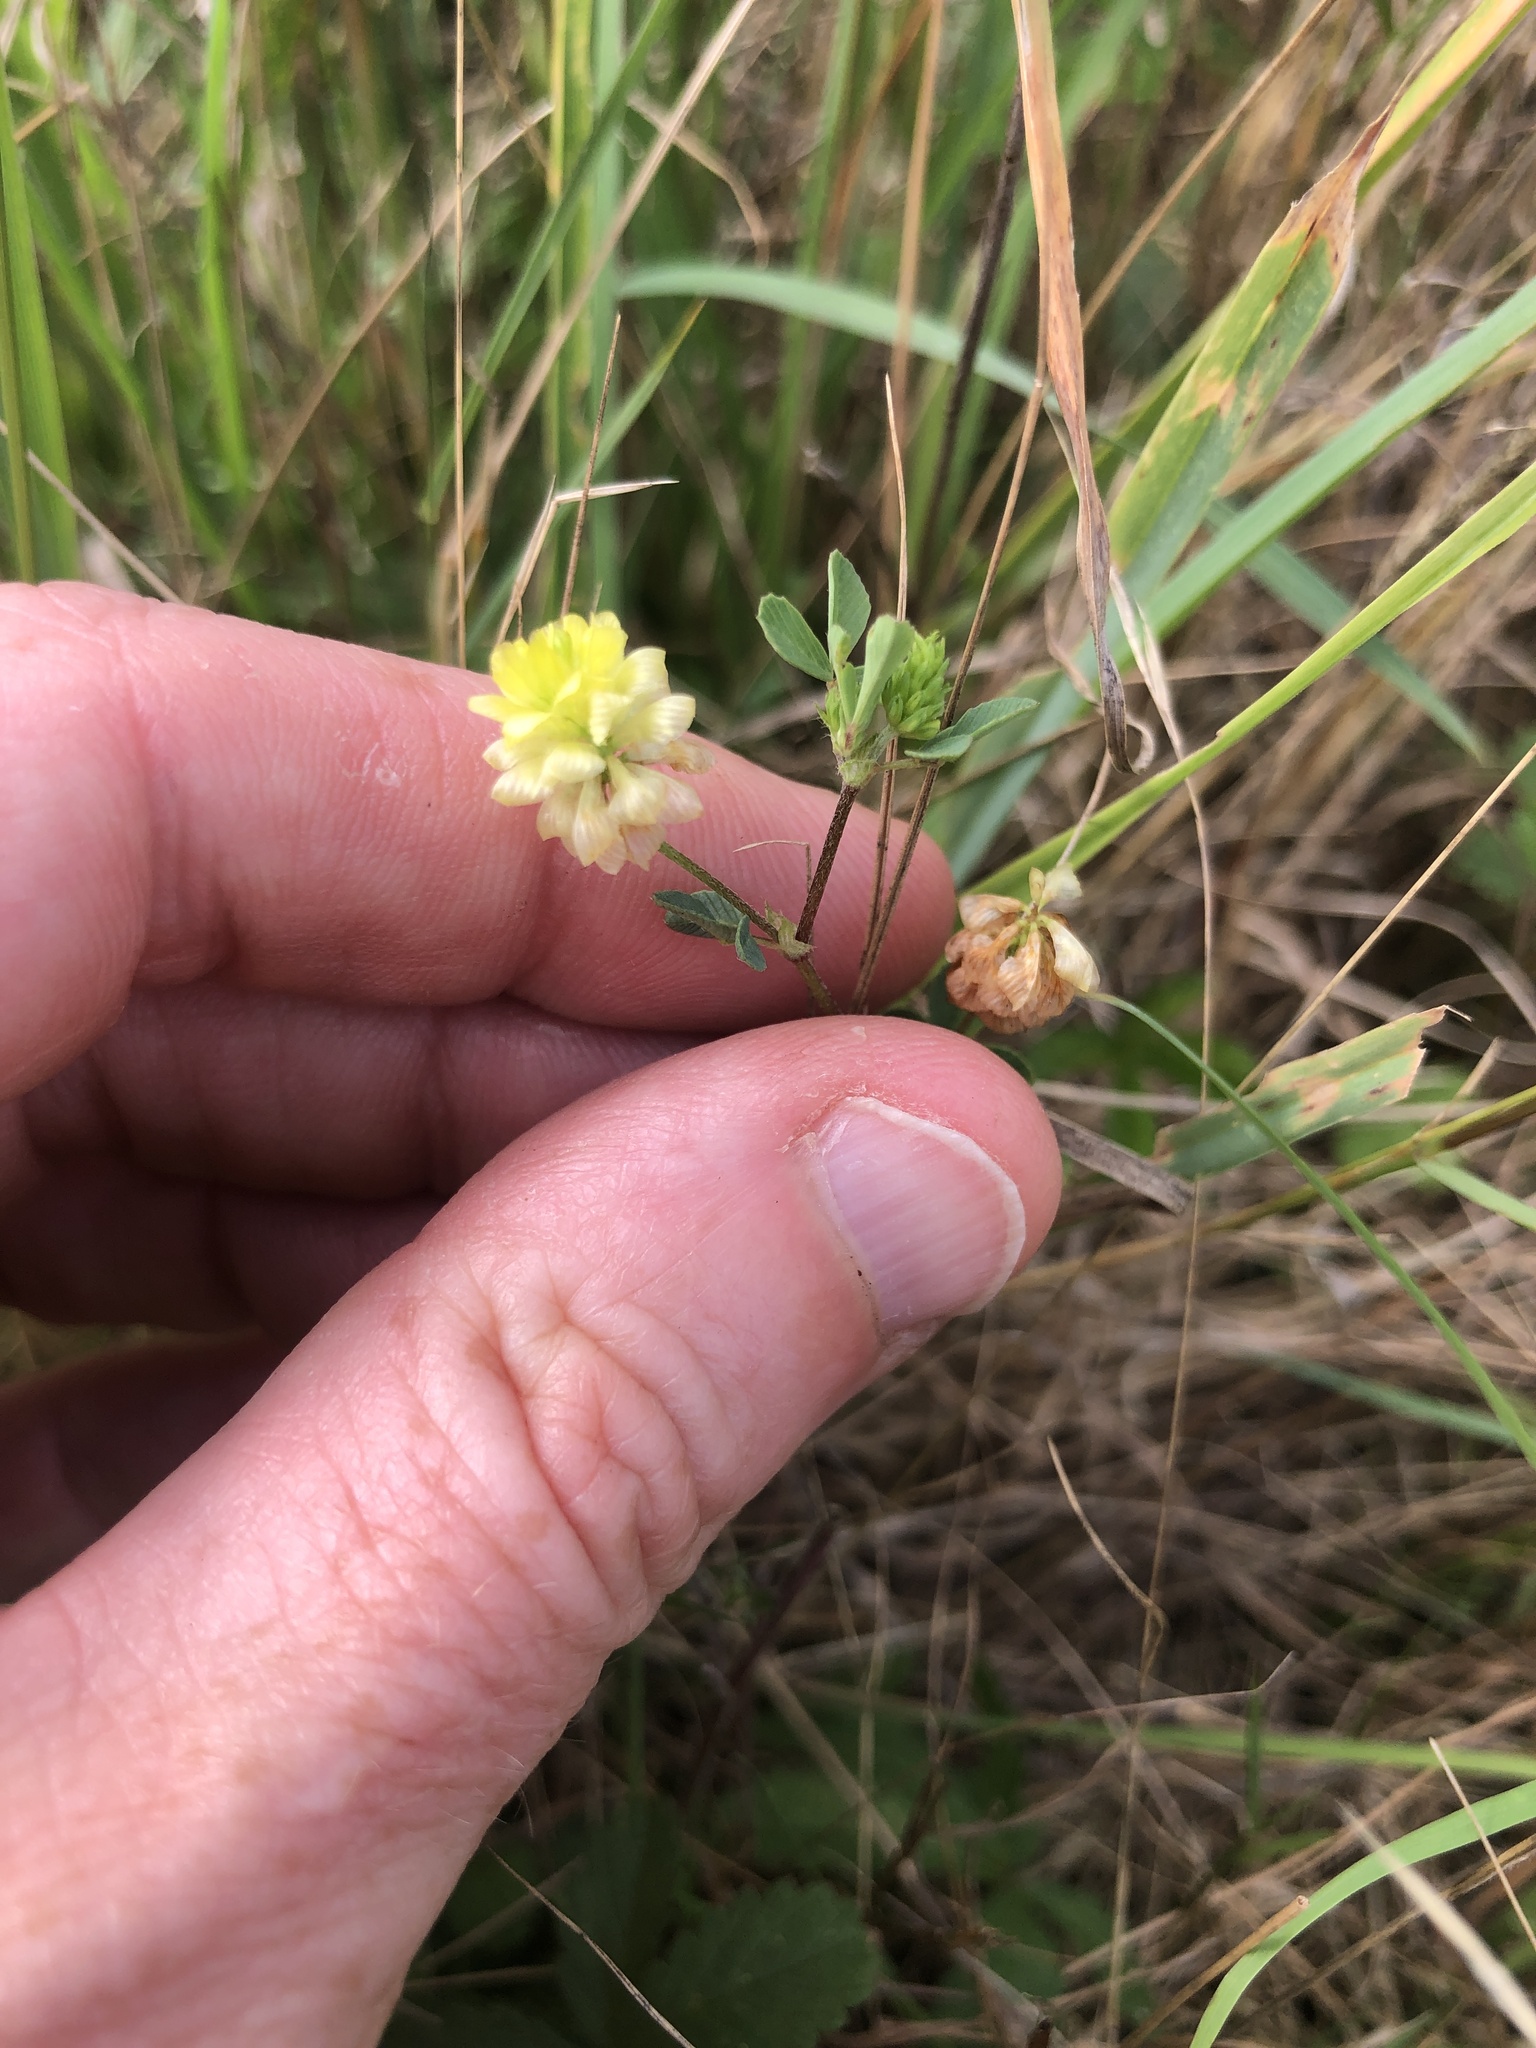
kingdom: Plantae
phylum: Tracheophyta
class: Magnoliopsida
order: Fabales
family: Fabaceae
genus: Trifolium
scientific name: Trifolium campestre
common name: Field clover
